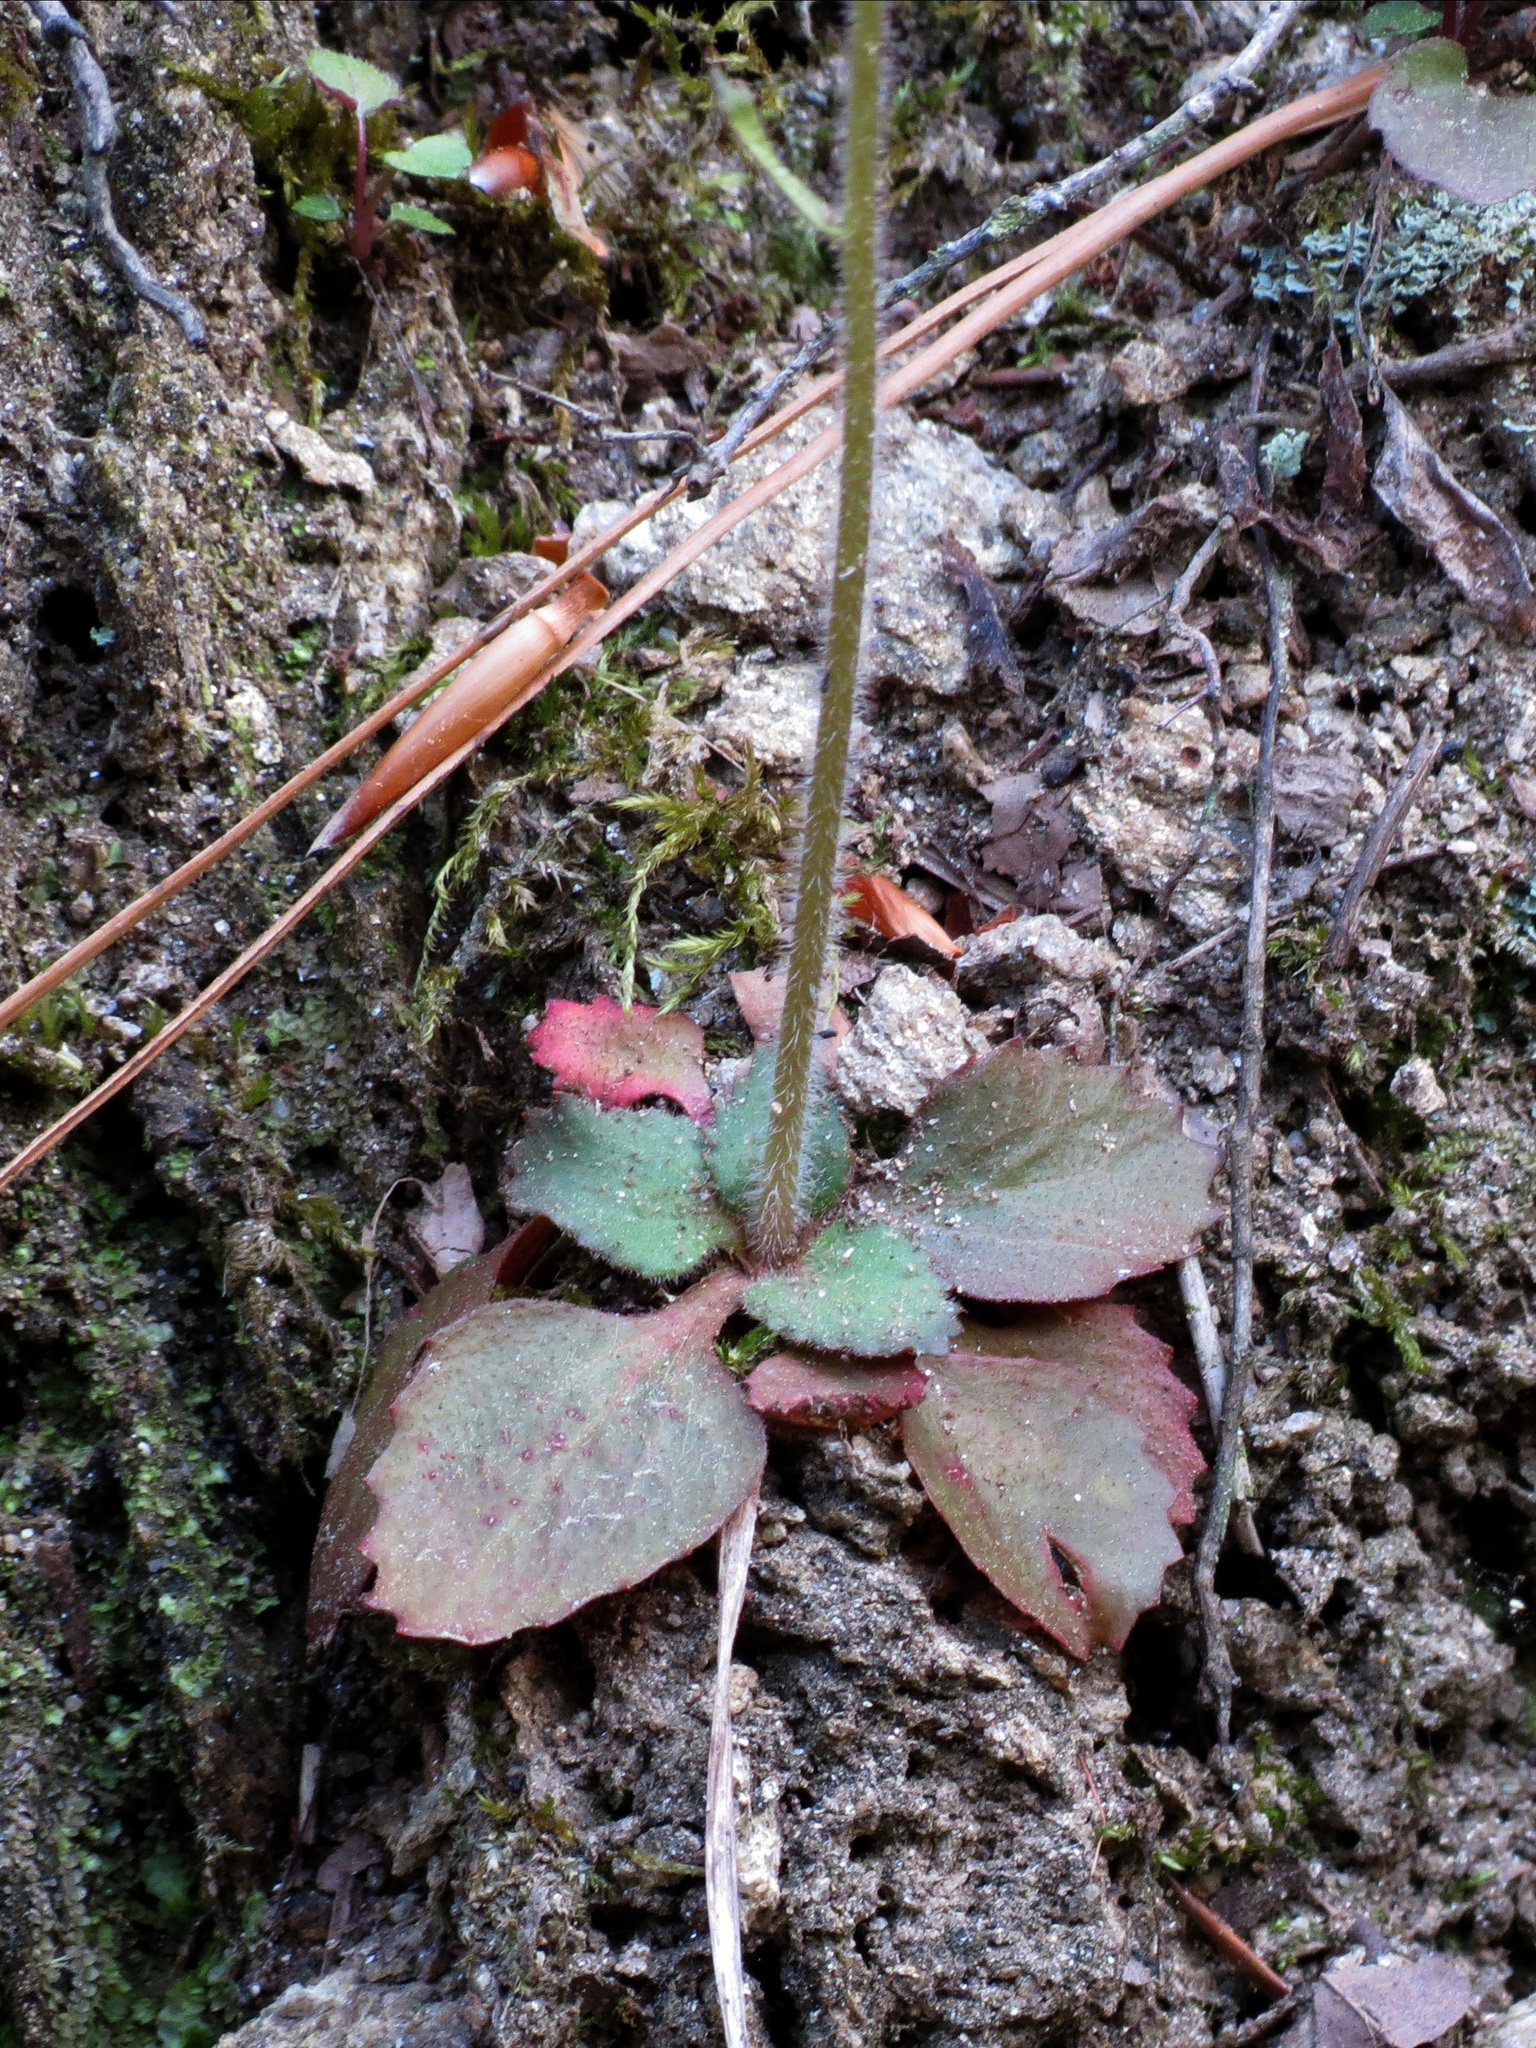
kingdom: Plantae
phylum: Tracheophyta
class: Magnoliopsida
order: Saxifragales
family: Saxifragaceae
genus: Micranthes
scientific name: Micranthes virginiensis
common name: Early saxifrage
